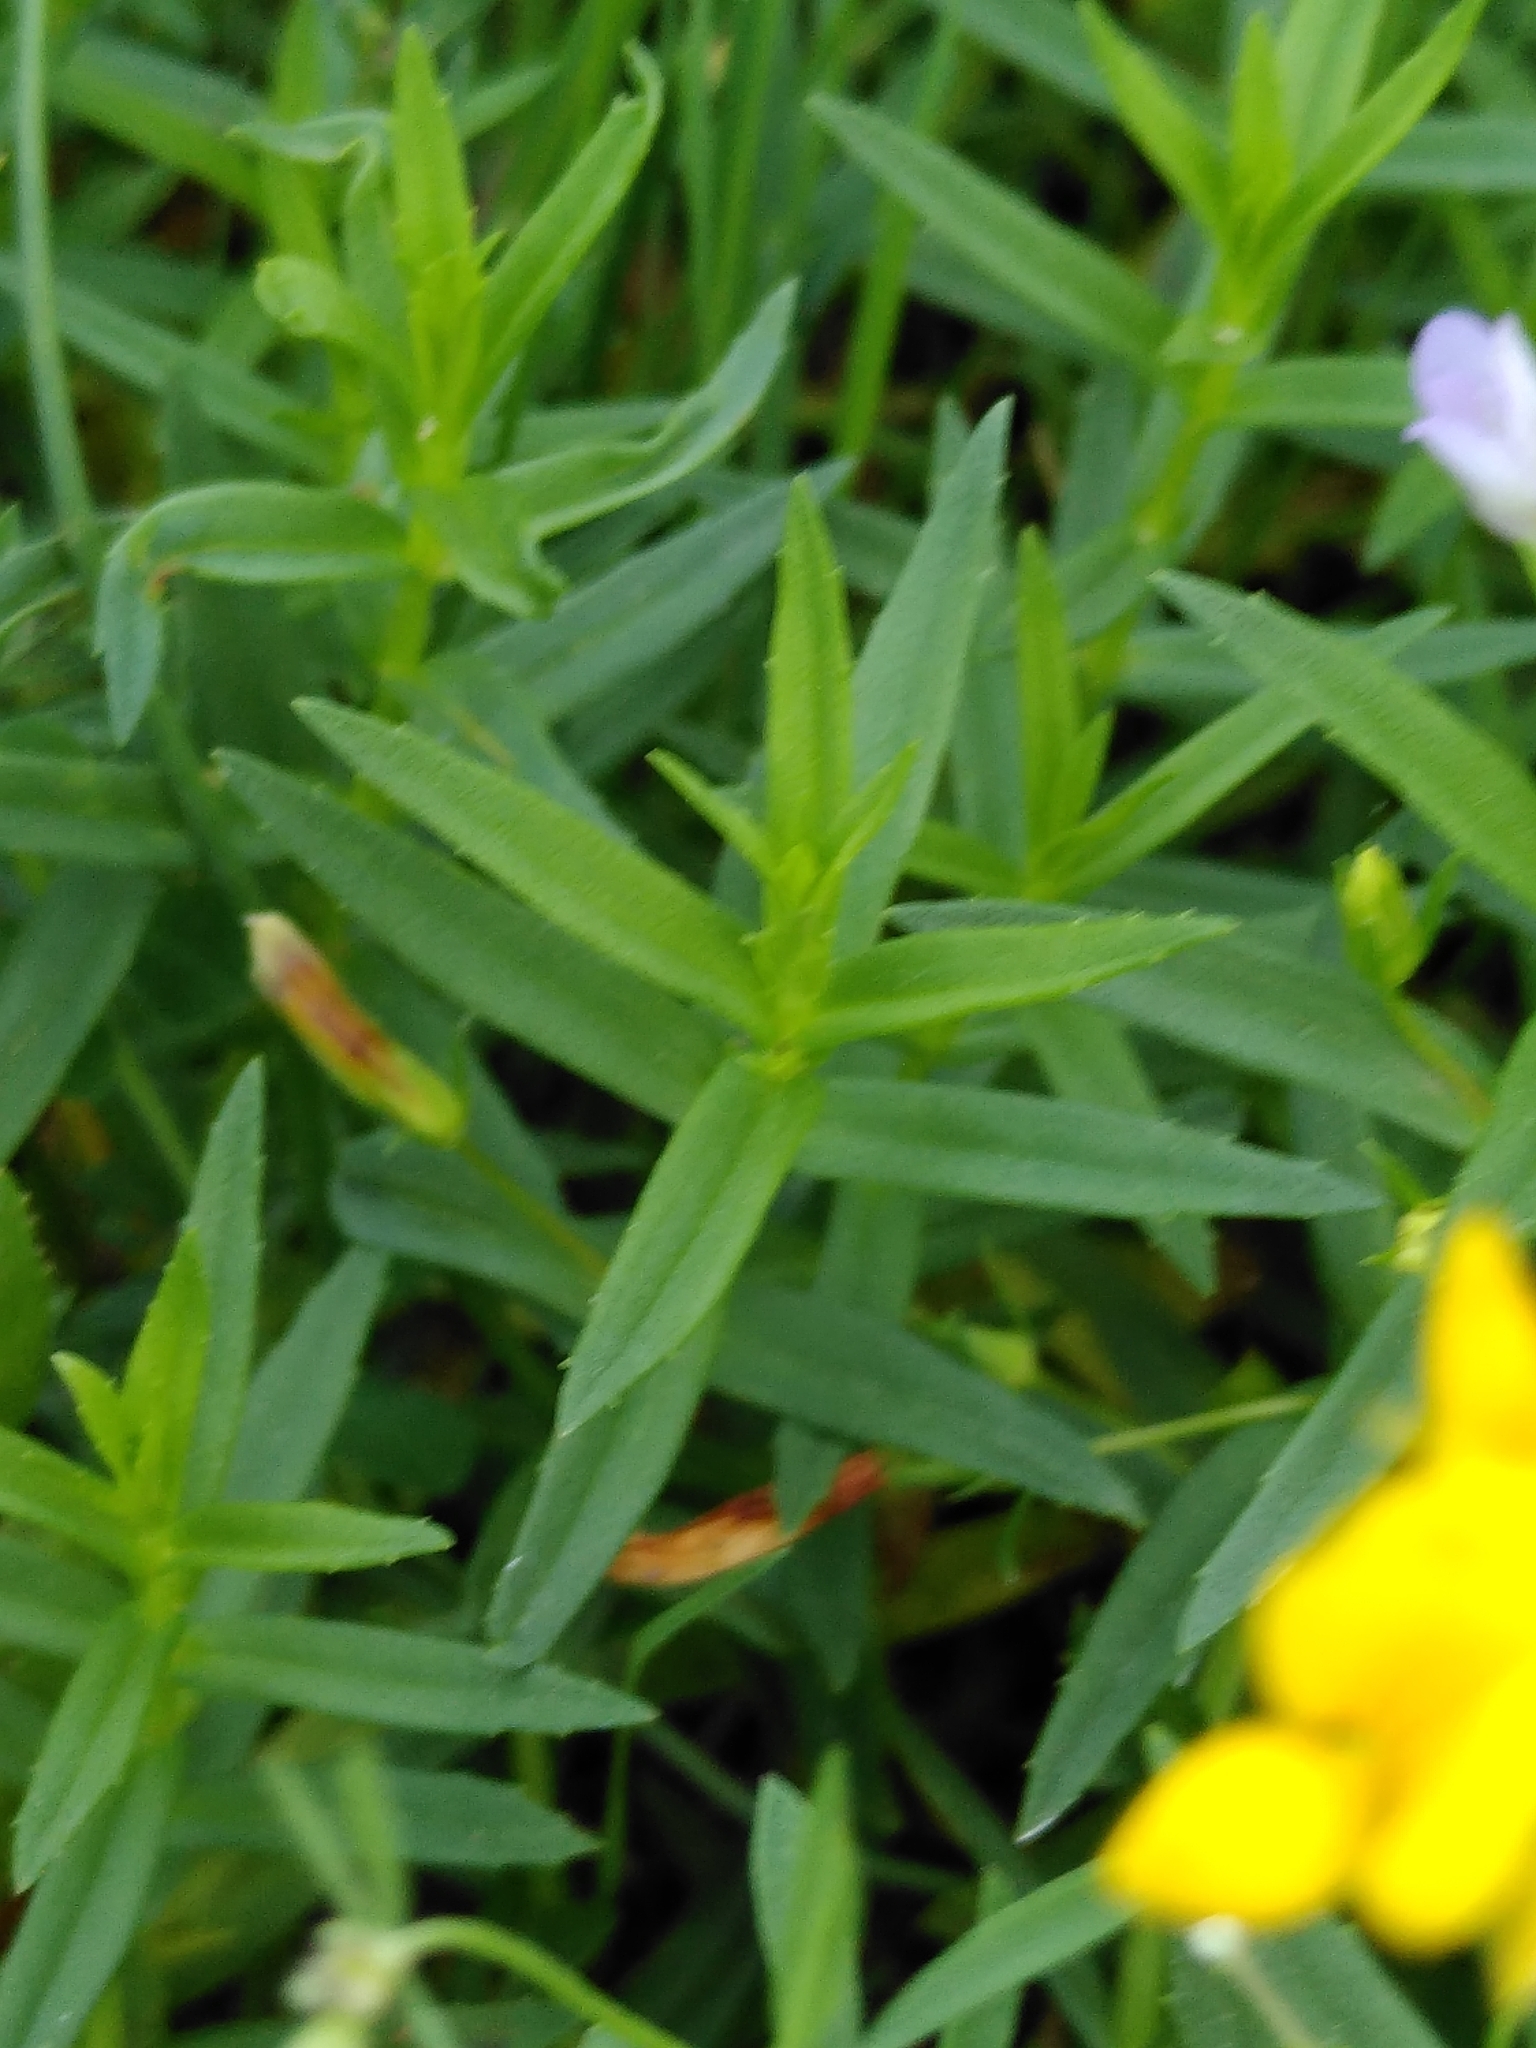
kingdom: Plantae
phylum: Tracheophyta
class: Magnoliopsida
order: Lamiales
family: Plantaginaceae
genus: Gratiola
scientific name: Gratiola officinalis
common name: Gratiola
